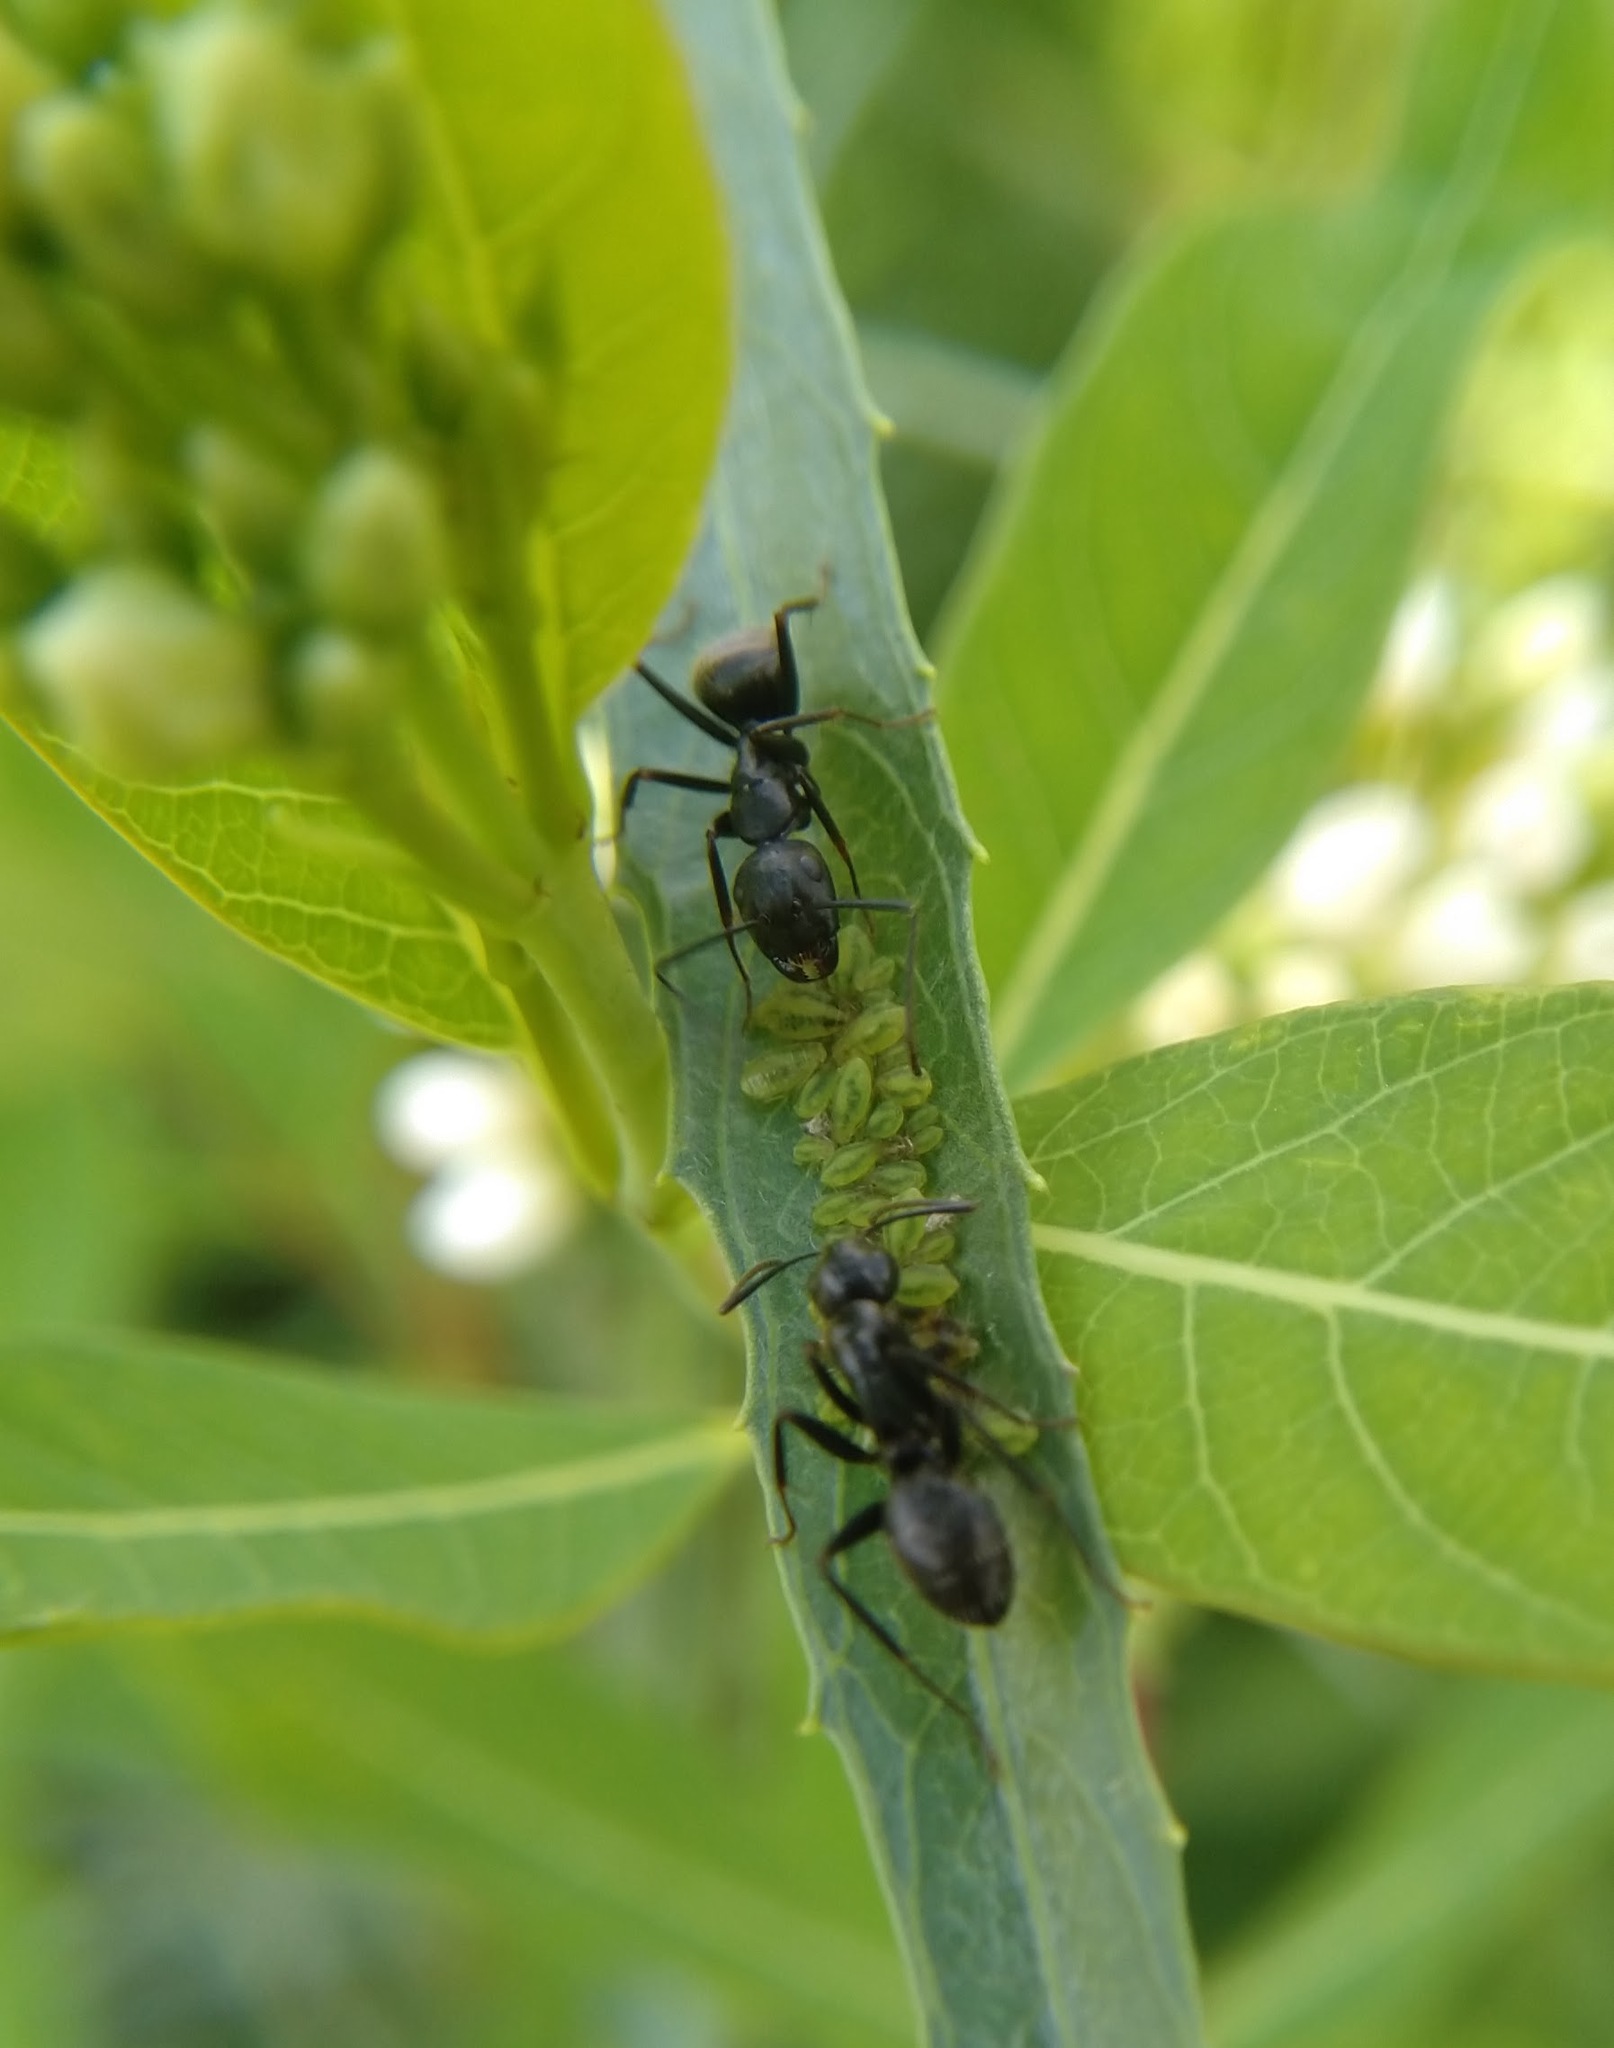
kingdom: Animalia
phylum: Arthropoda
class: Insecta
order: Hymenoptera
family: Formicidae
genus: Camponotus
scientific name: Camponotus pennsylvanicus
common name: Black carpenter ant
